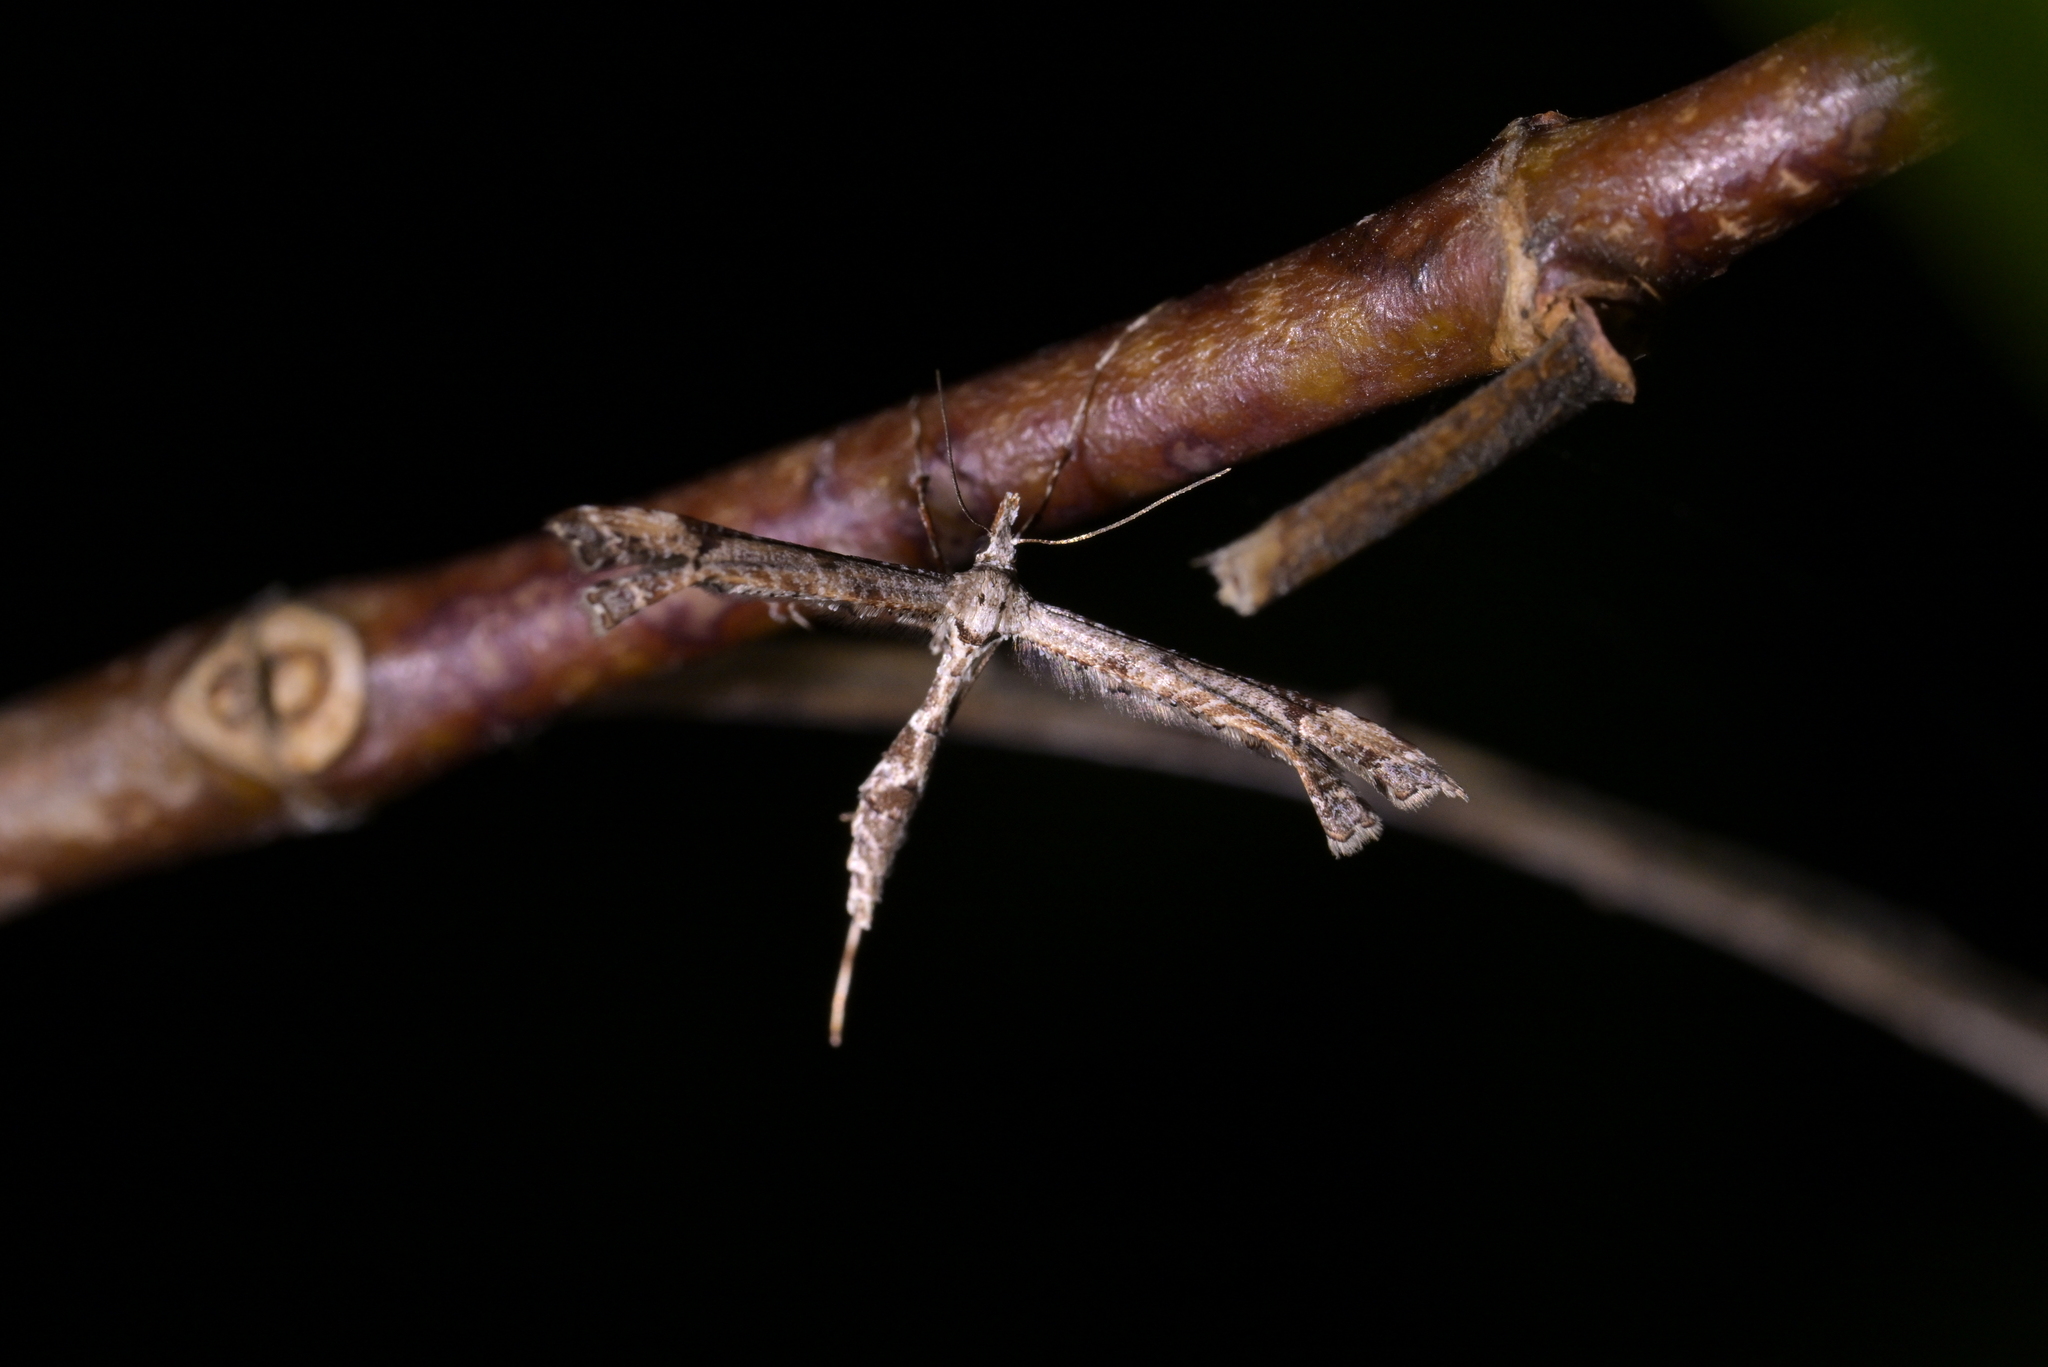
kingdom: Animalia
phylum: Arthropoda
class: Insecta
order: Lepidoptera
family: Pterophoridae
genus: Amblyptilia
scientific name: Amblyptilia repletalis
